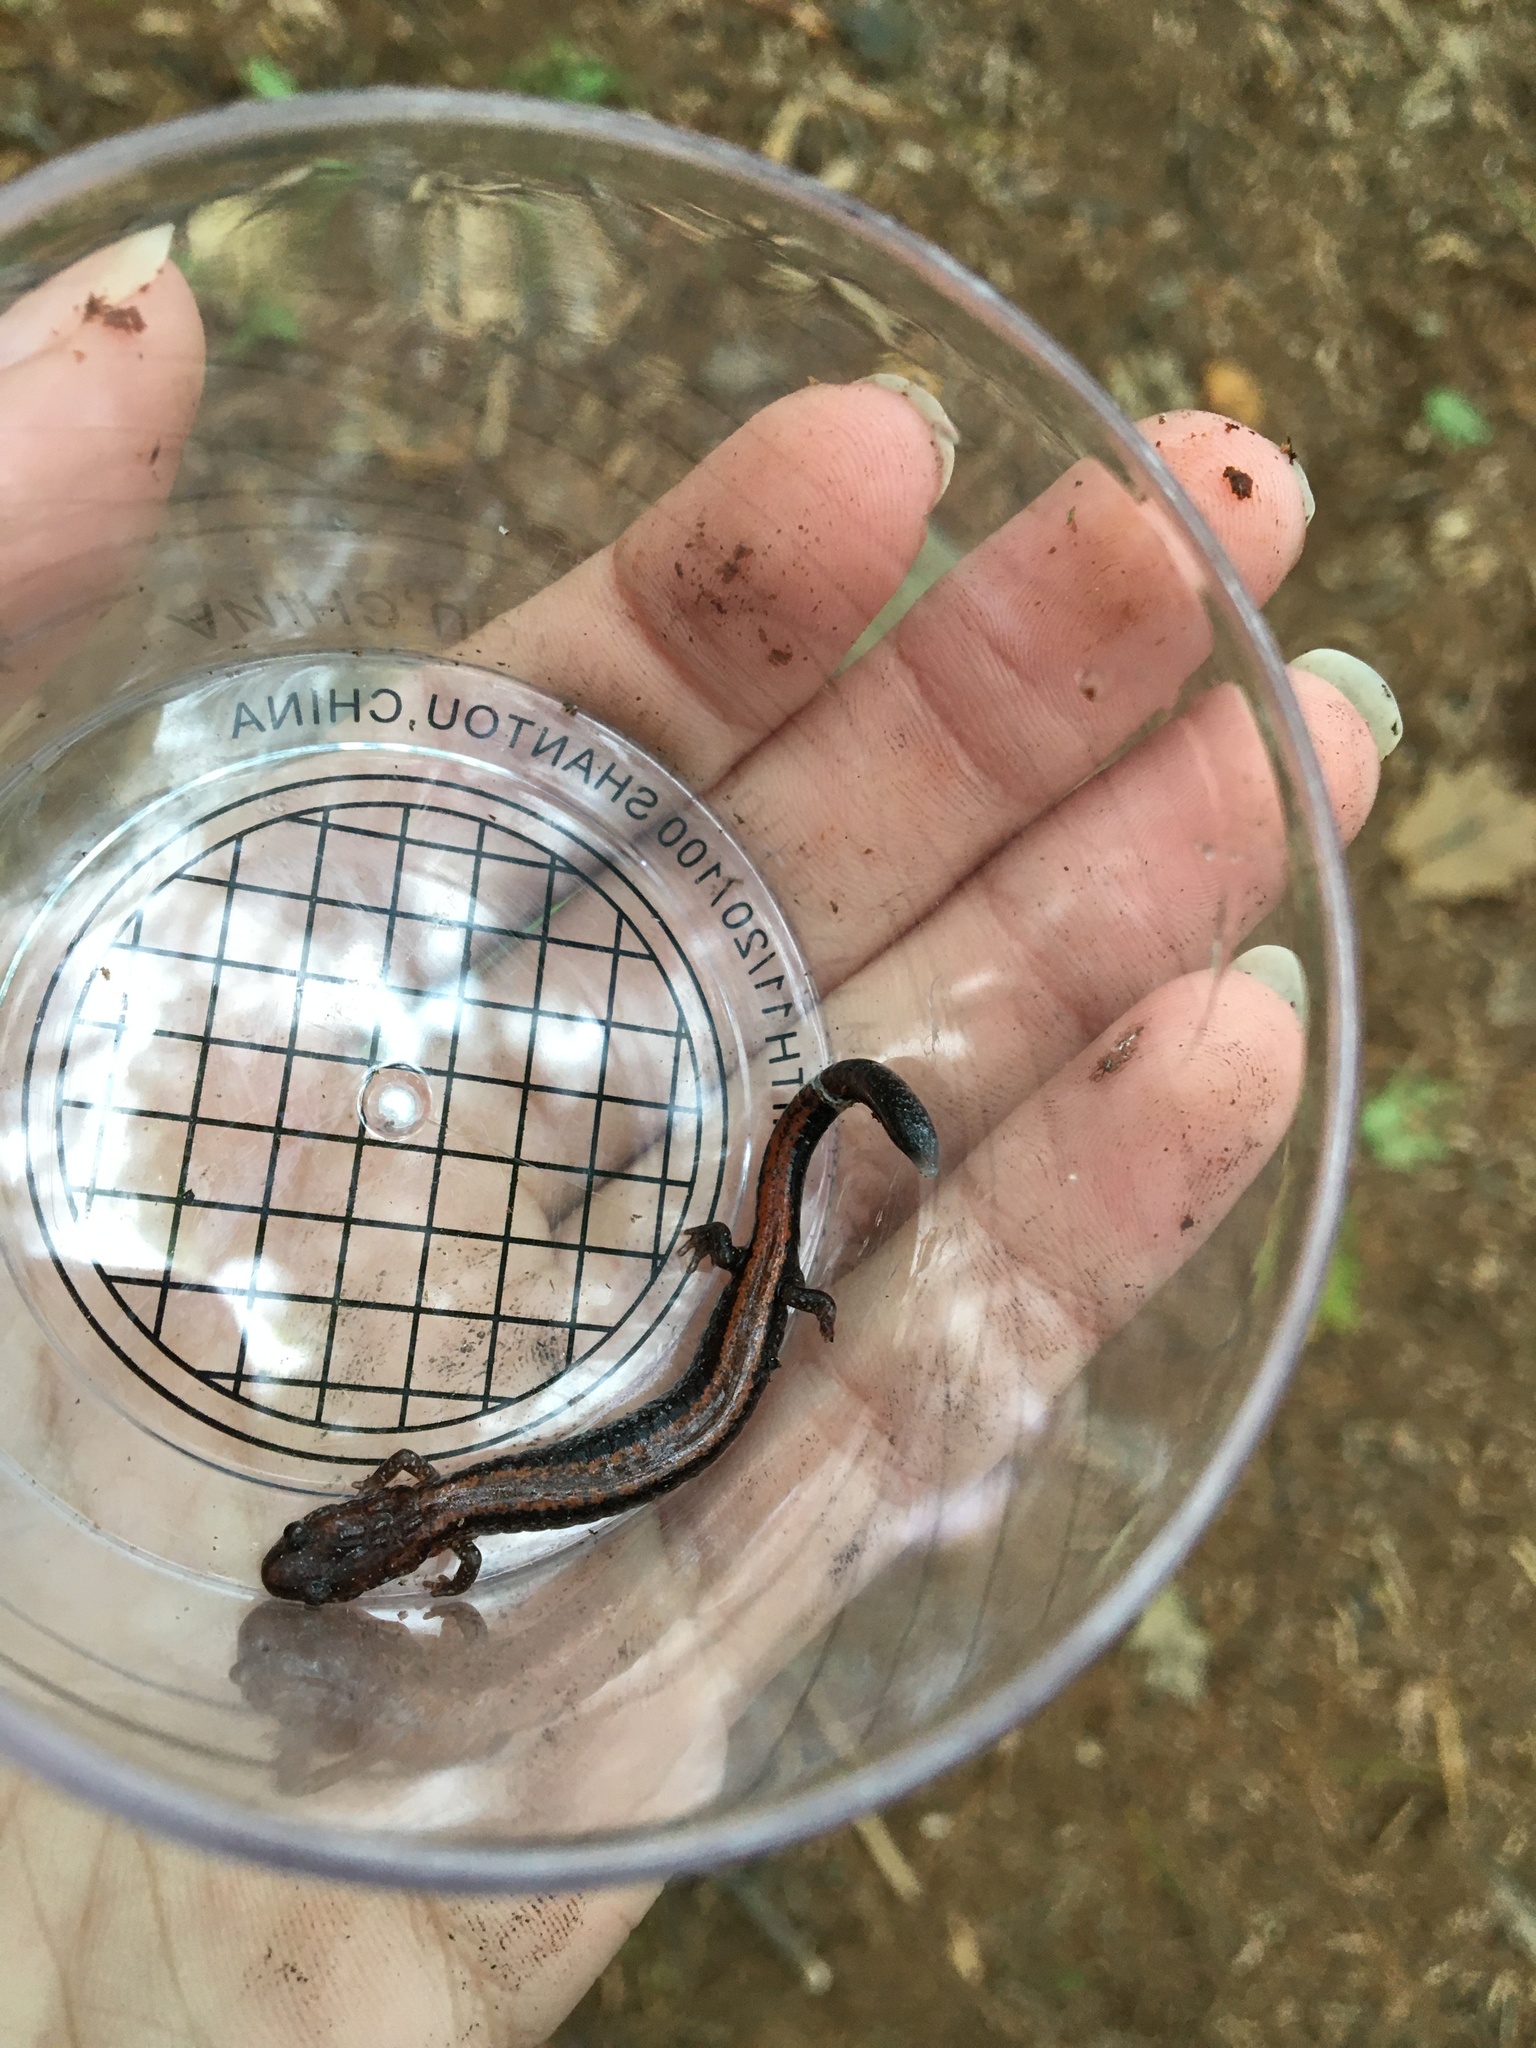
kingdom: Animalia
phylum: Chordata
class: Amphibia
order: Caudata
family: Plethodontidae
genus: Plethodon
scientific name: Plethodon cinereus
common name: Redback salamander
